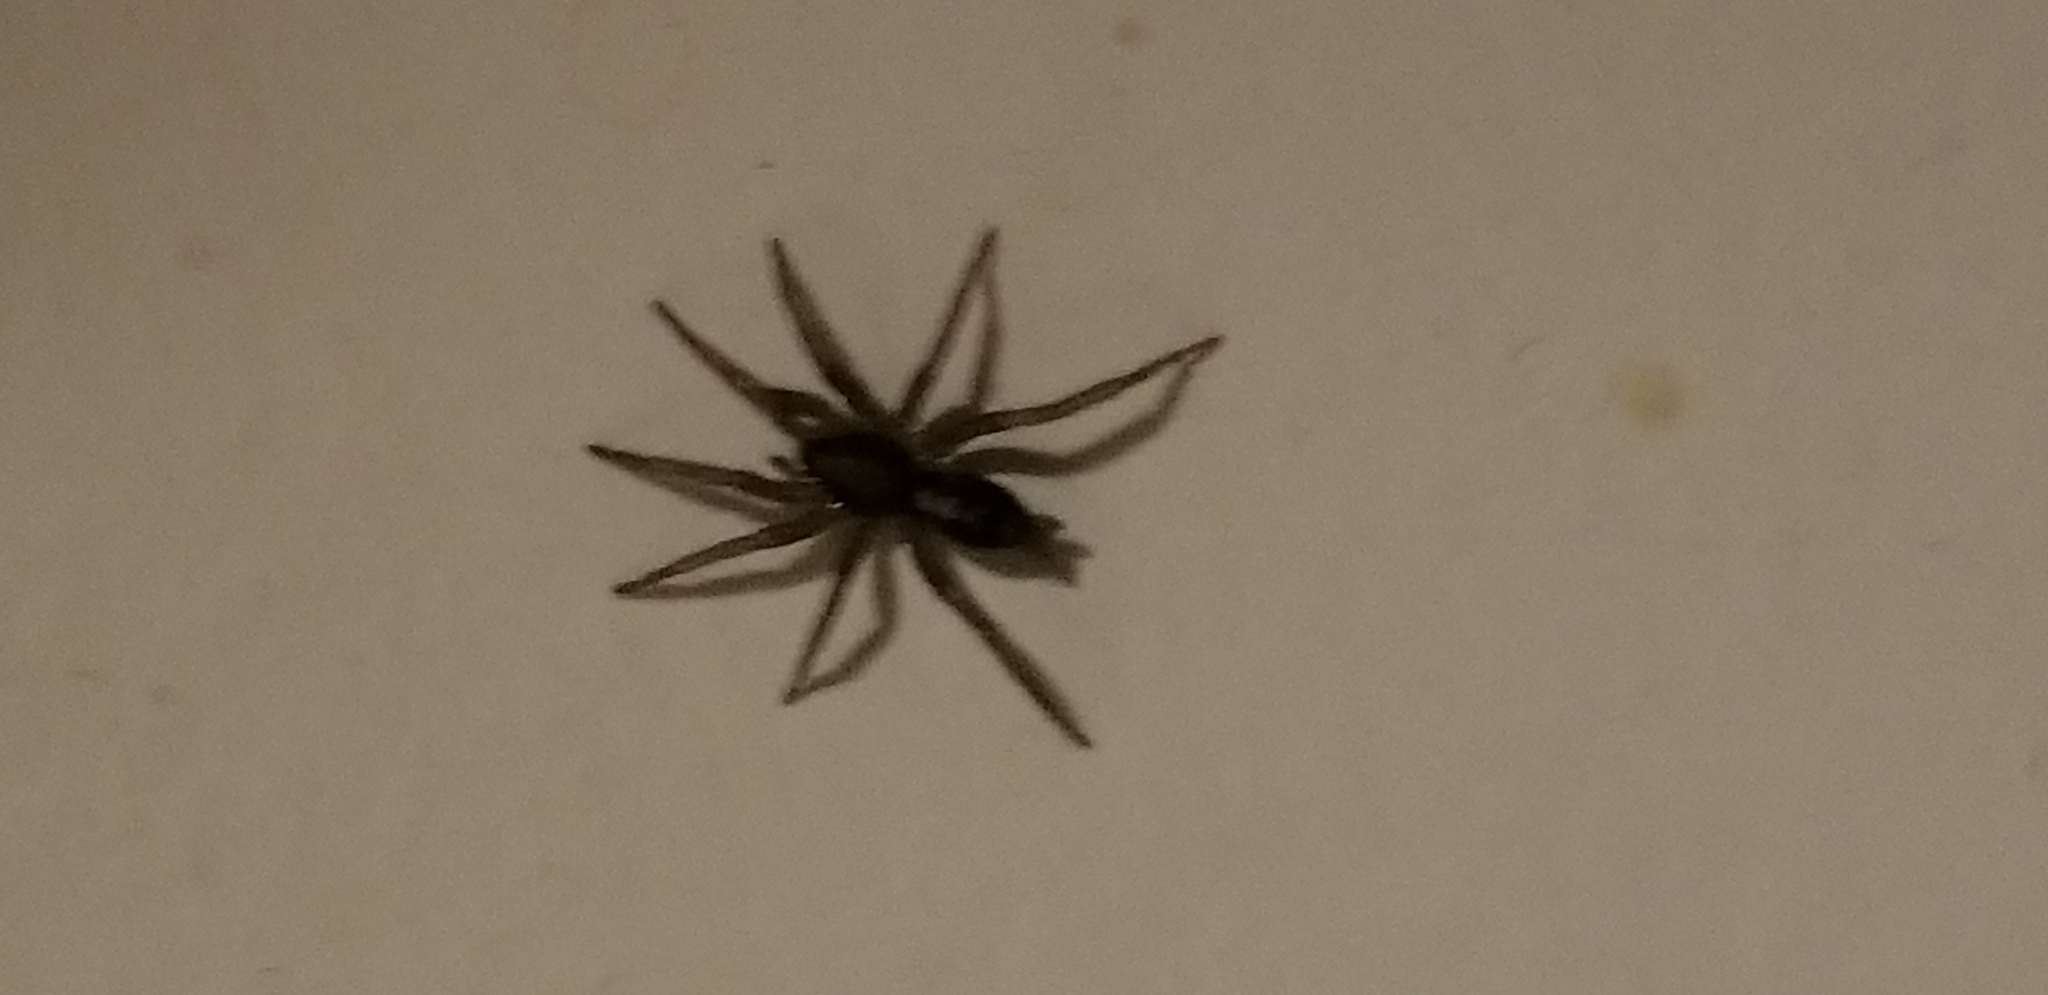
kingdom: Animalia
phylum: Arthropoda
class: Arachnida
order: Araneae
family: Gnaphosidae
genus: Herpyllus
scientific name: Herpyllus ecclesiasticus
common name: Eastern parson spider
